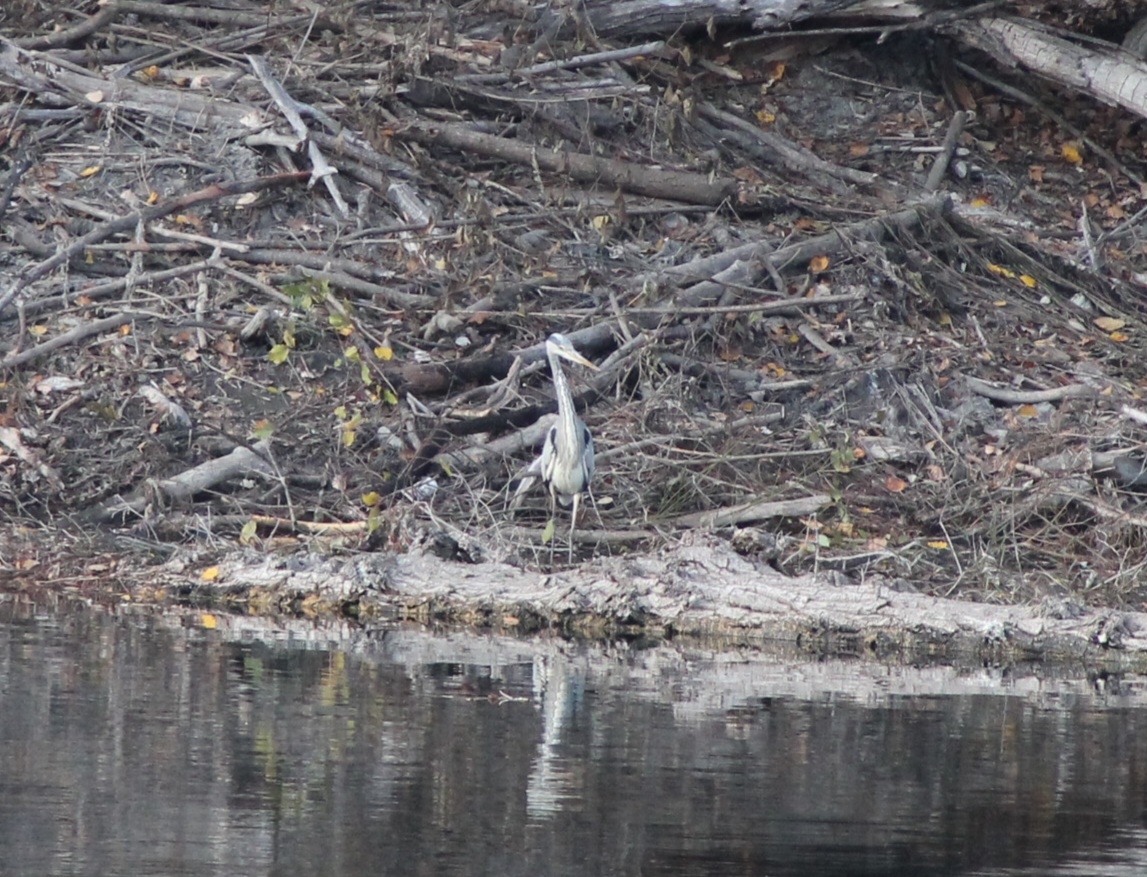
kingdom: Animalia
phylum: Chordata
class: Aves
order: Pelecaniformes
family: Ardeidae
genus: Ardea
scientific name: Ardea cinerea
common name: Grey heron
